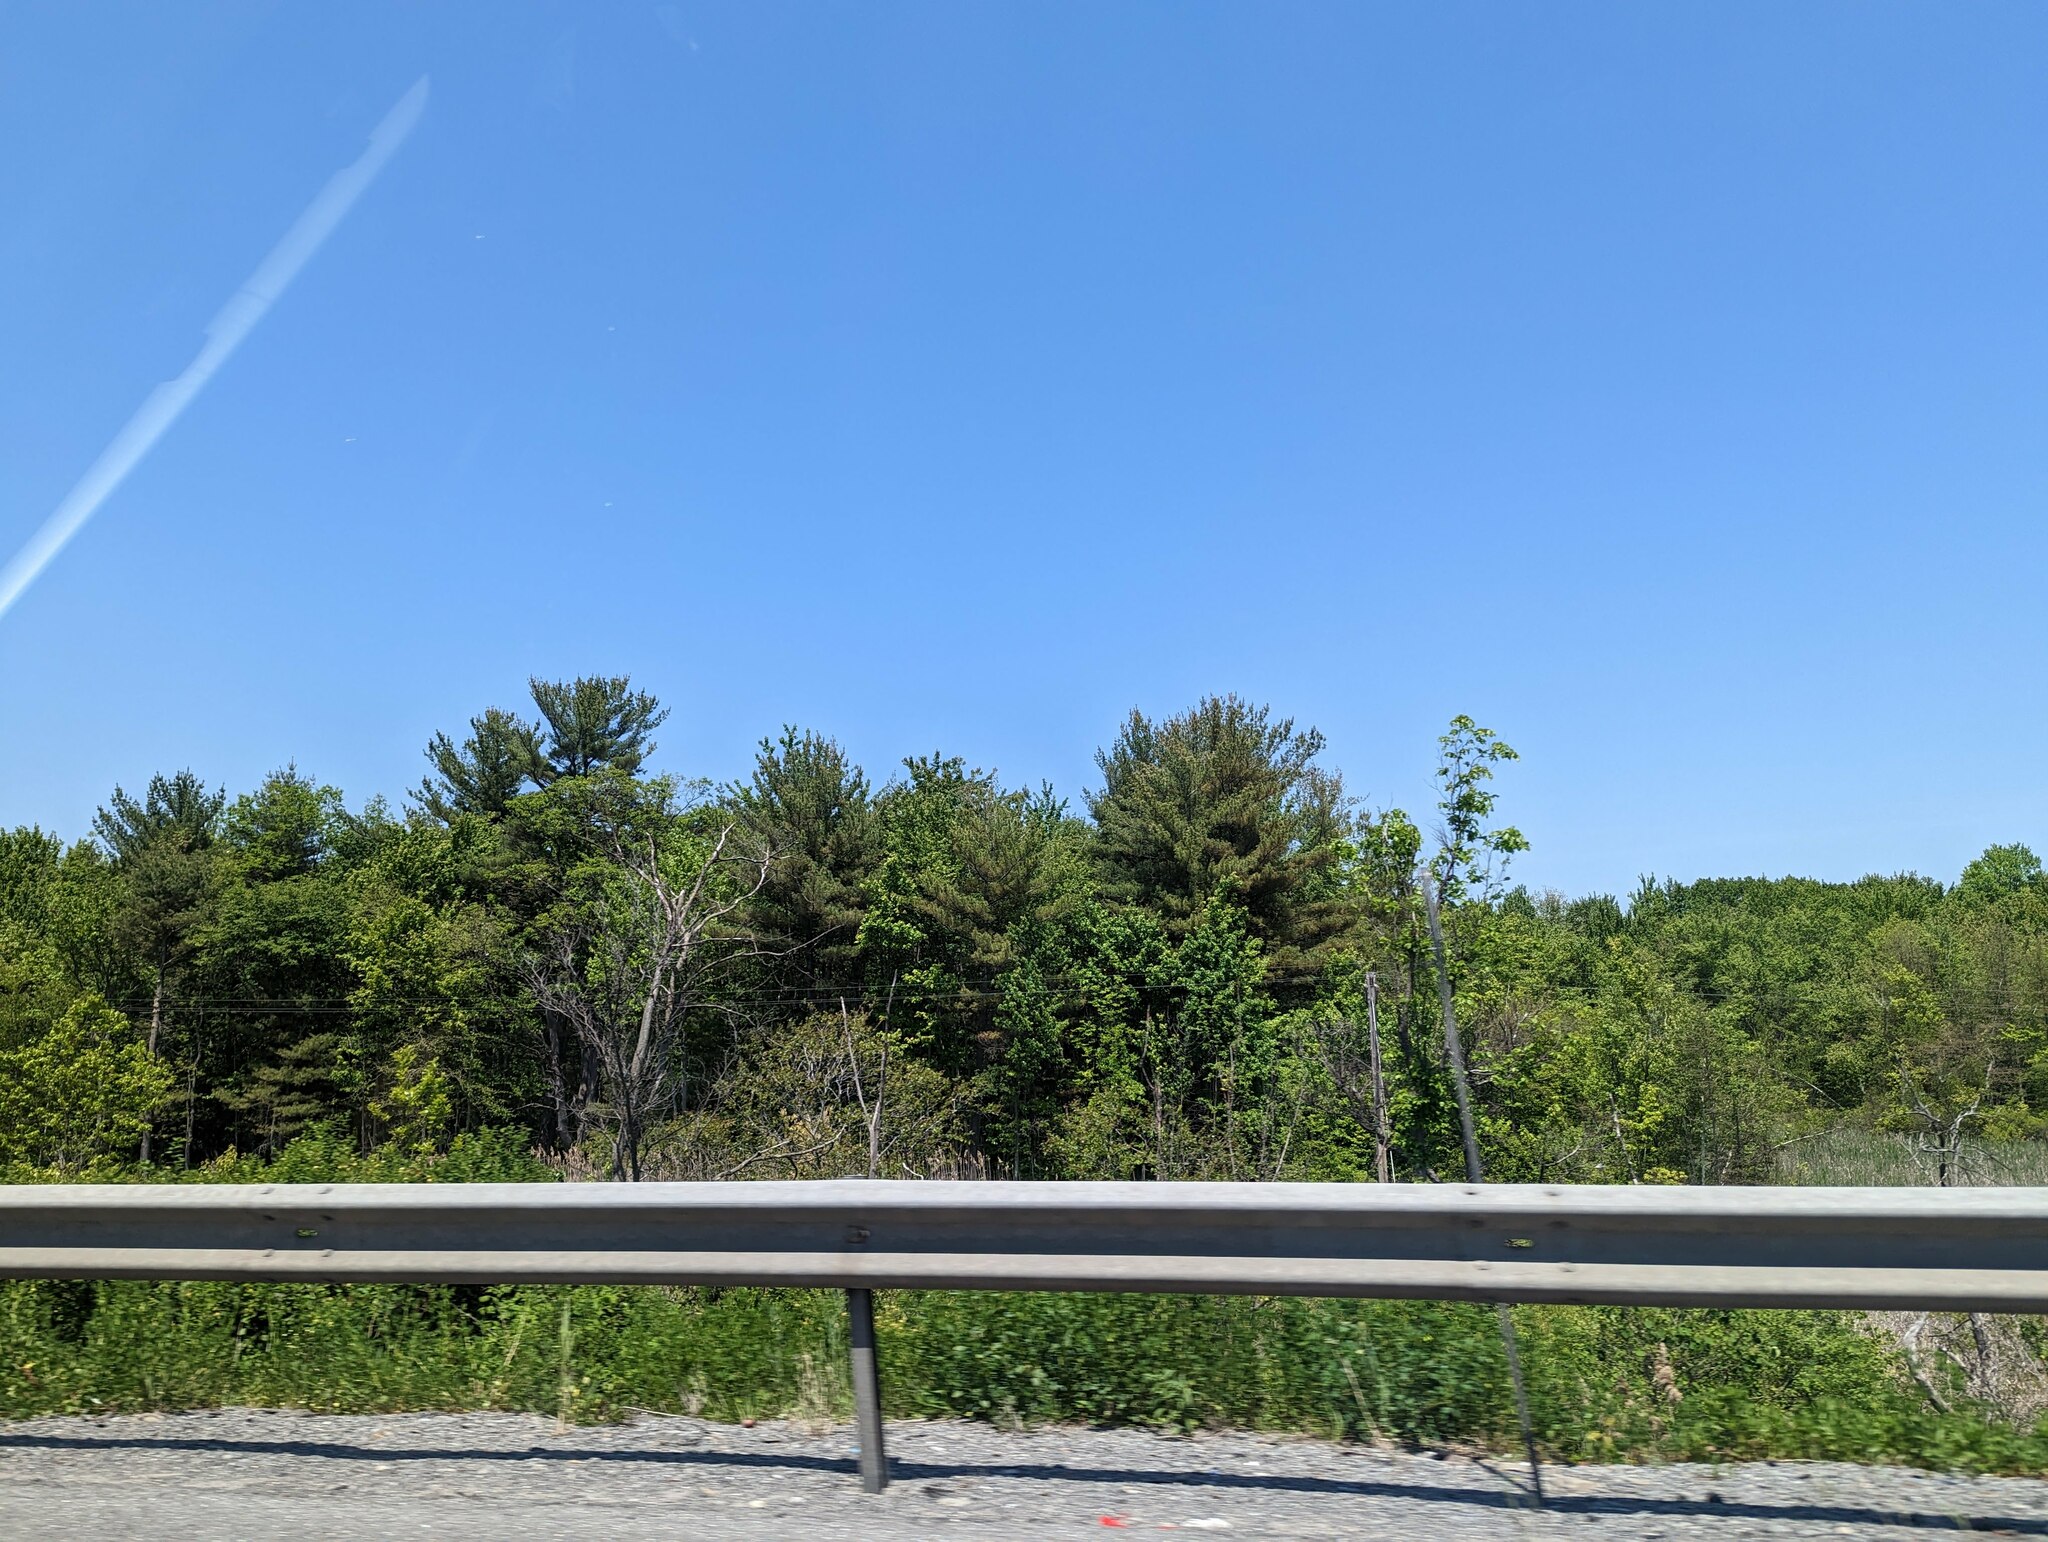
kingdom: Plantae
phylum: Tracheophyta
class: Pinopsida
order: Pinales
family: Pinaceae
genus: Pinus
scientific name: Pinus strobus
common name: Weymouth pine
